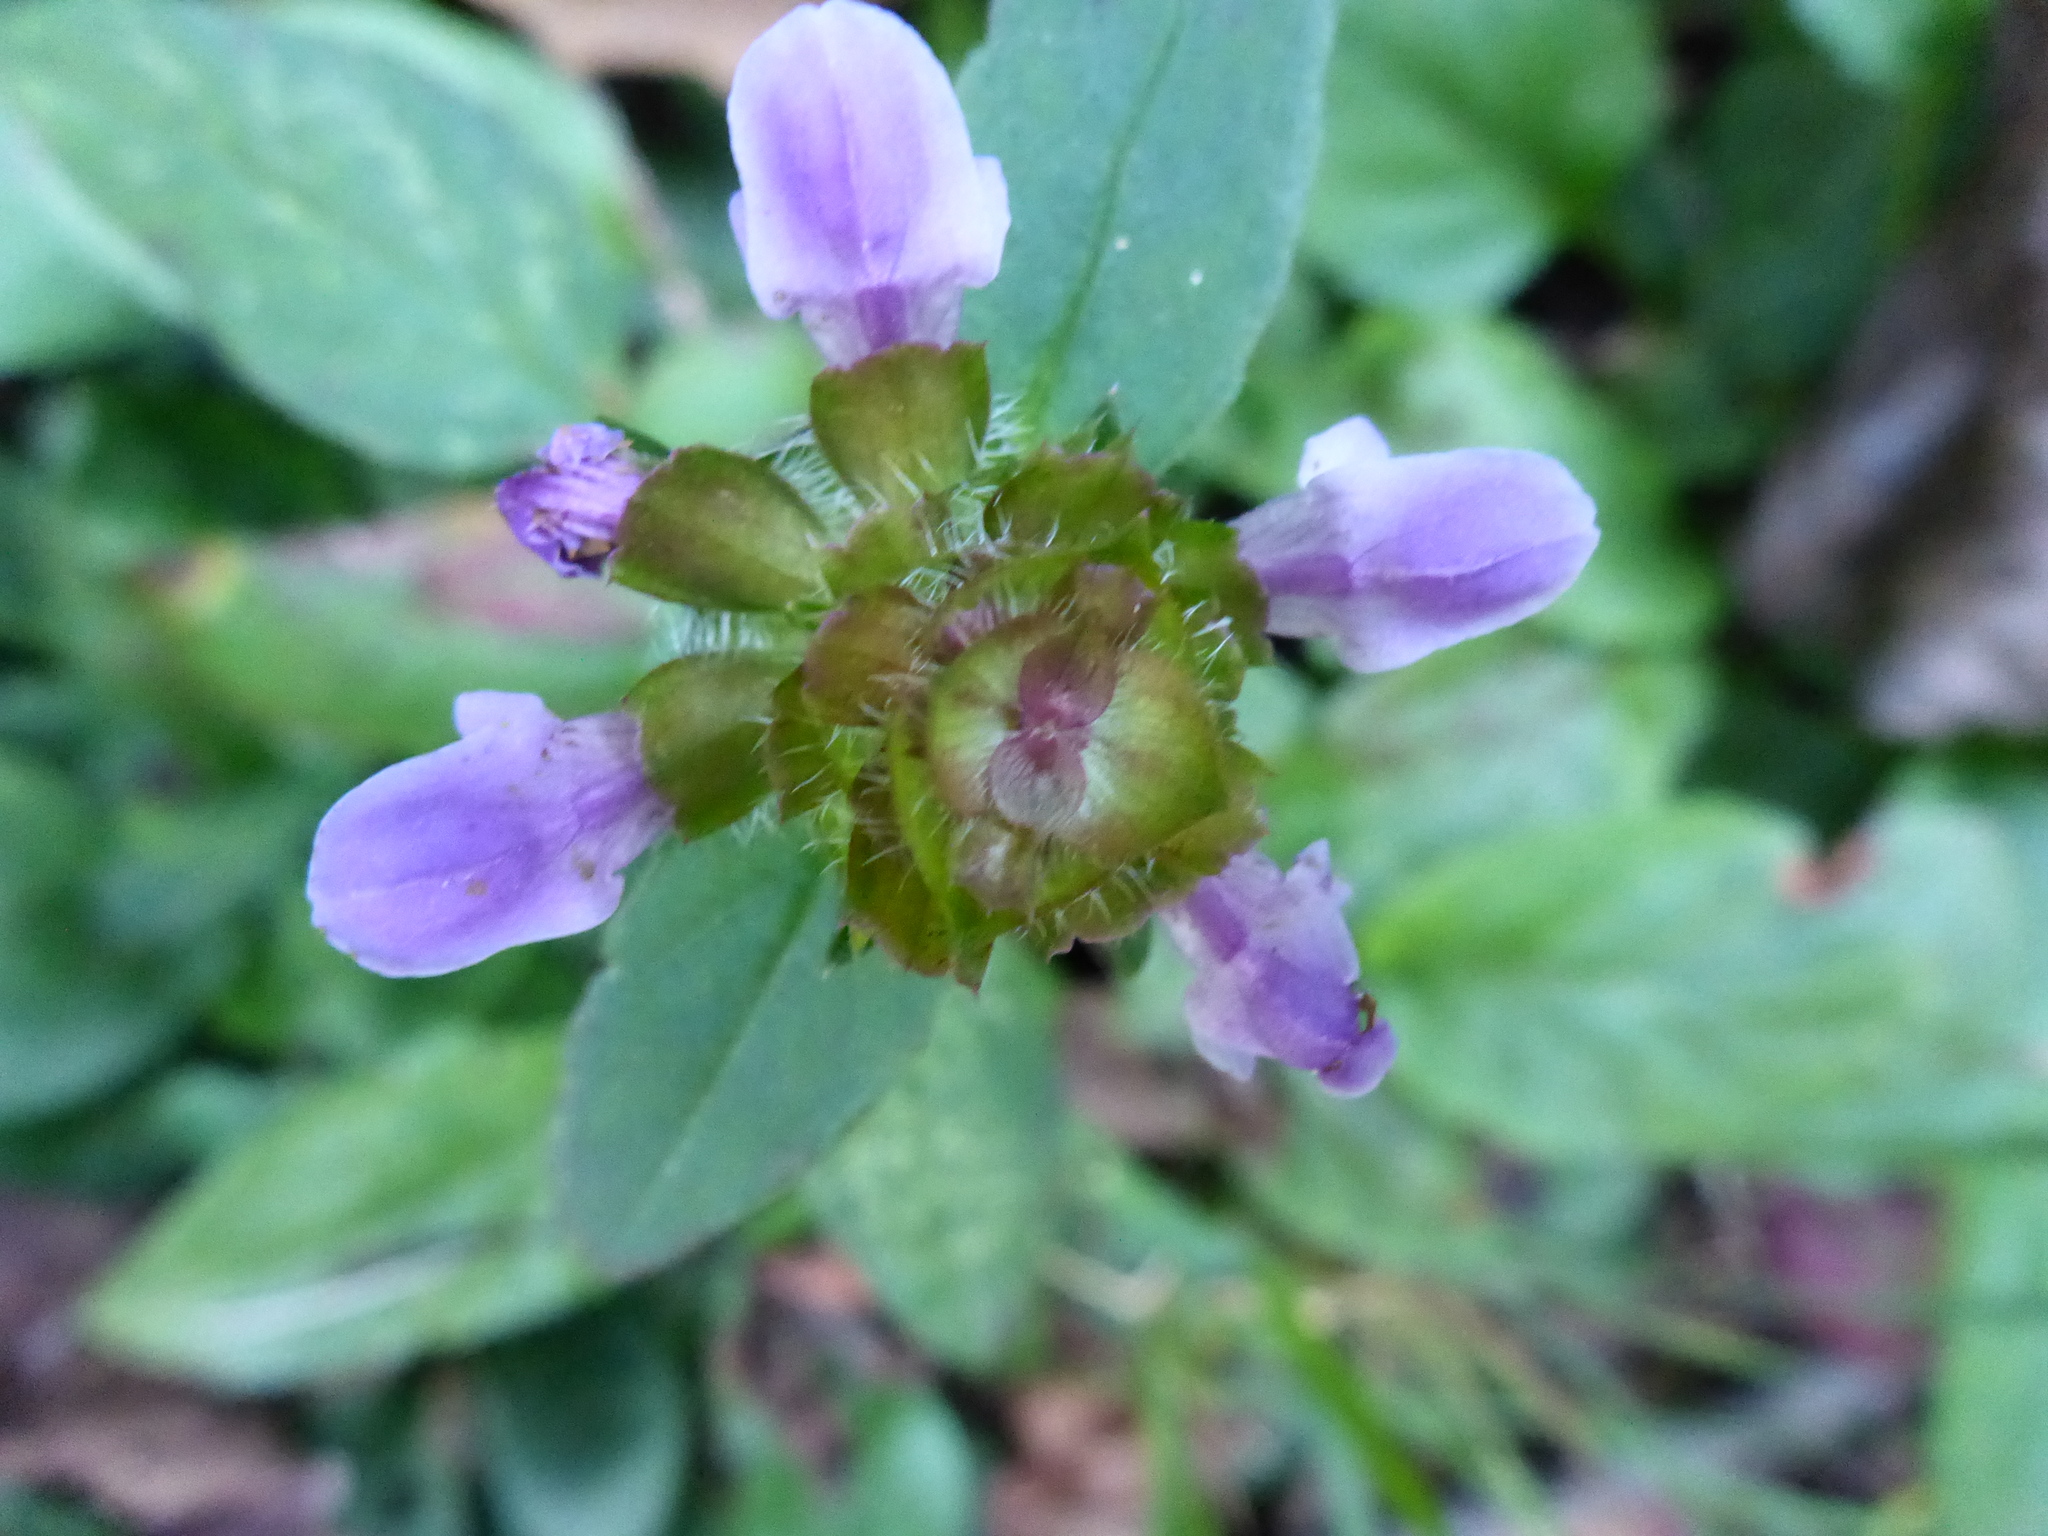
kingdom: Plantae
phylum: Tracheophyta
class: Magnoliopsida
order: Lamiales
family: Lamiaceae
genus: Prunella
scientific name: Prunella vulgaris
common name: Heal-all
